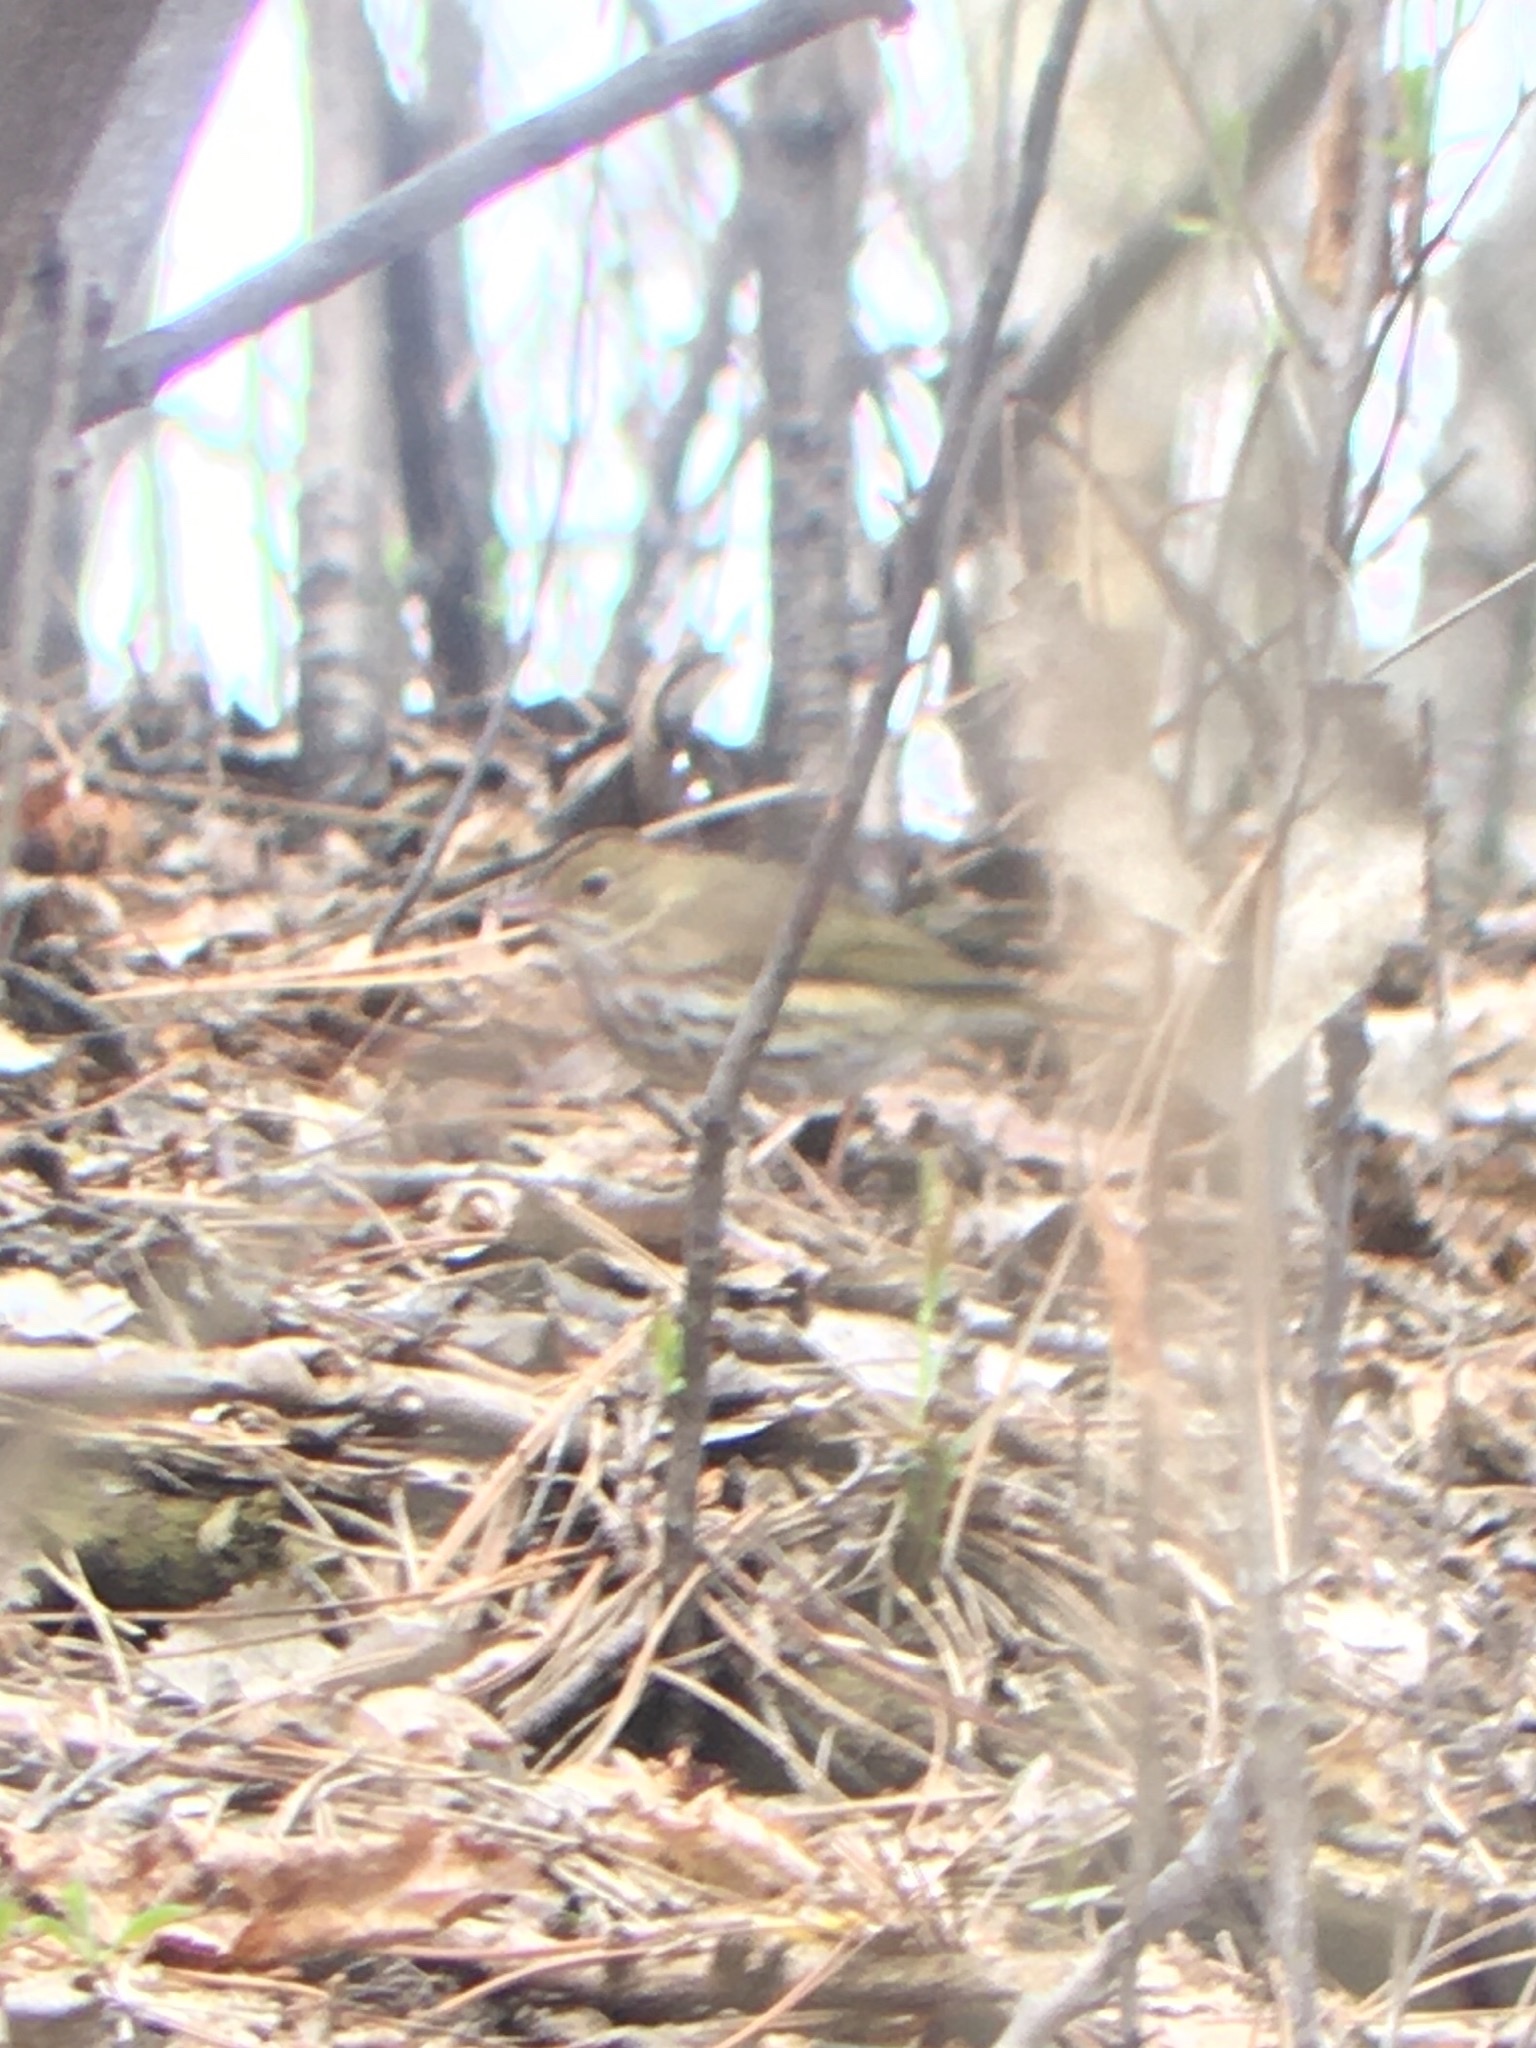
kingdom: Animalia
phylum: Chordata
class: Aves
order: Passeriformes
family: Parulidae
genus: Seiurus
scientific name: Seiurus aurocapilla
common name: Ovenbird
